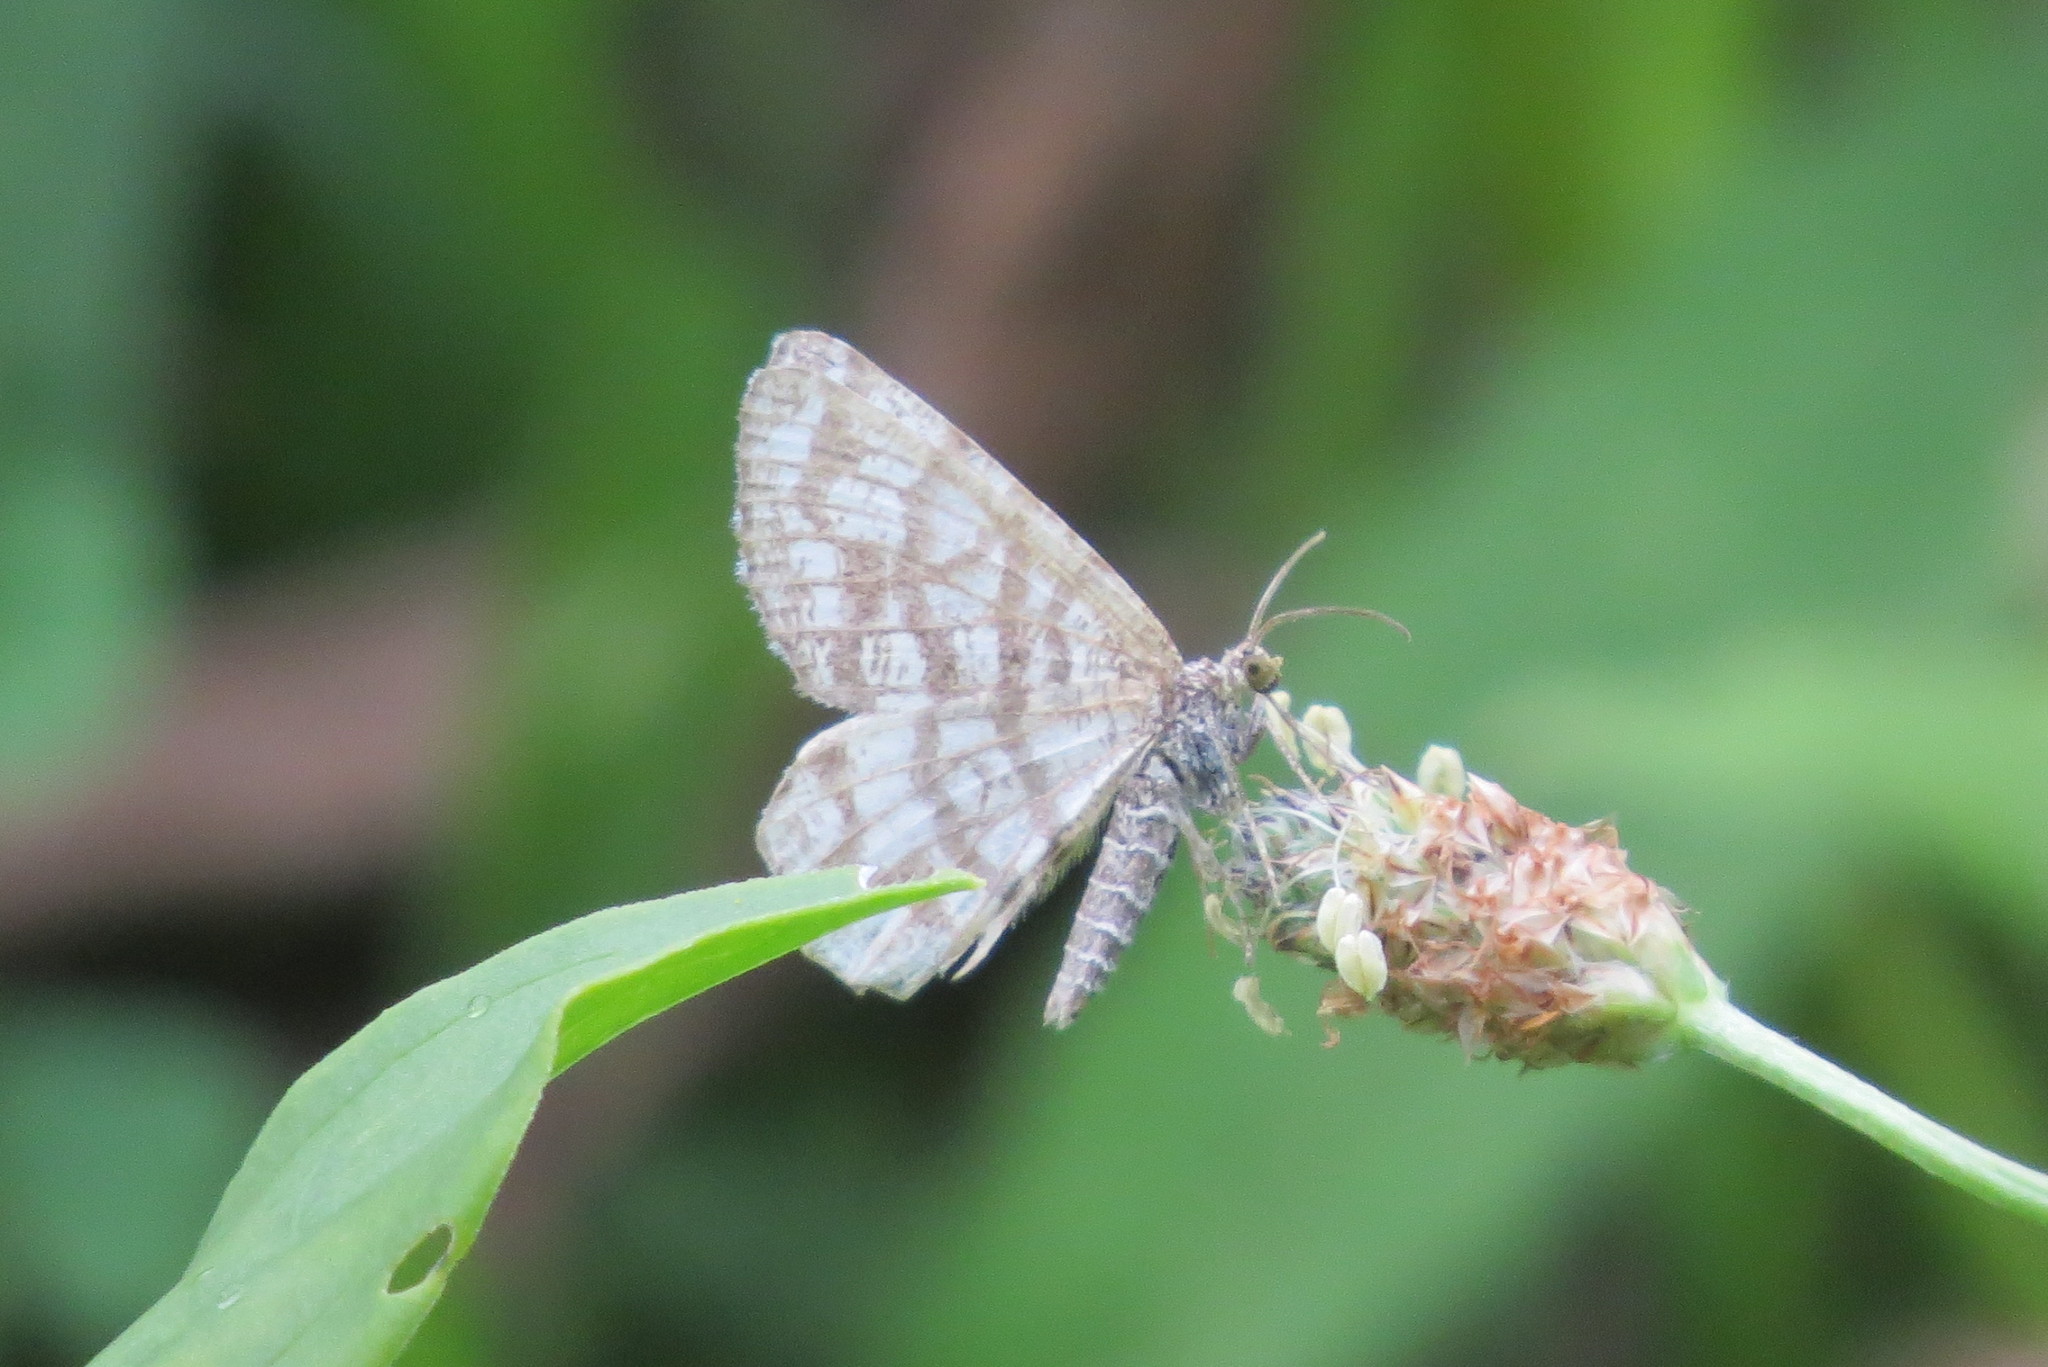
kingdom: Animalia
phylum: Arthropoda
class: Insecta
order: Lepidoptera
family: Geometridae
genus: Chiasmia
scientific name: Chiasmia clathrata
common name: Latticed heath
